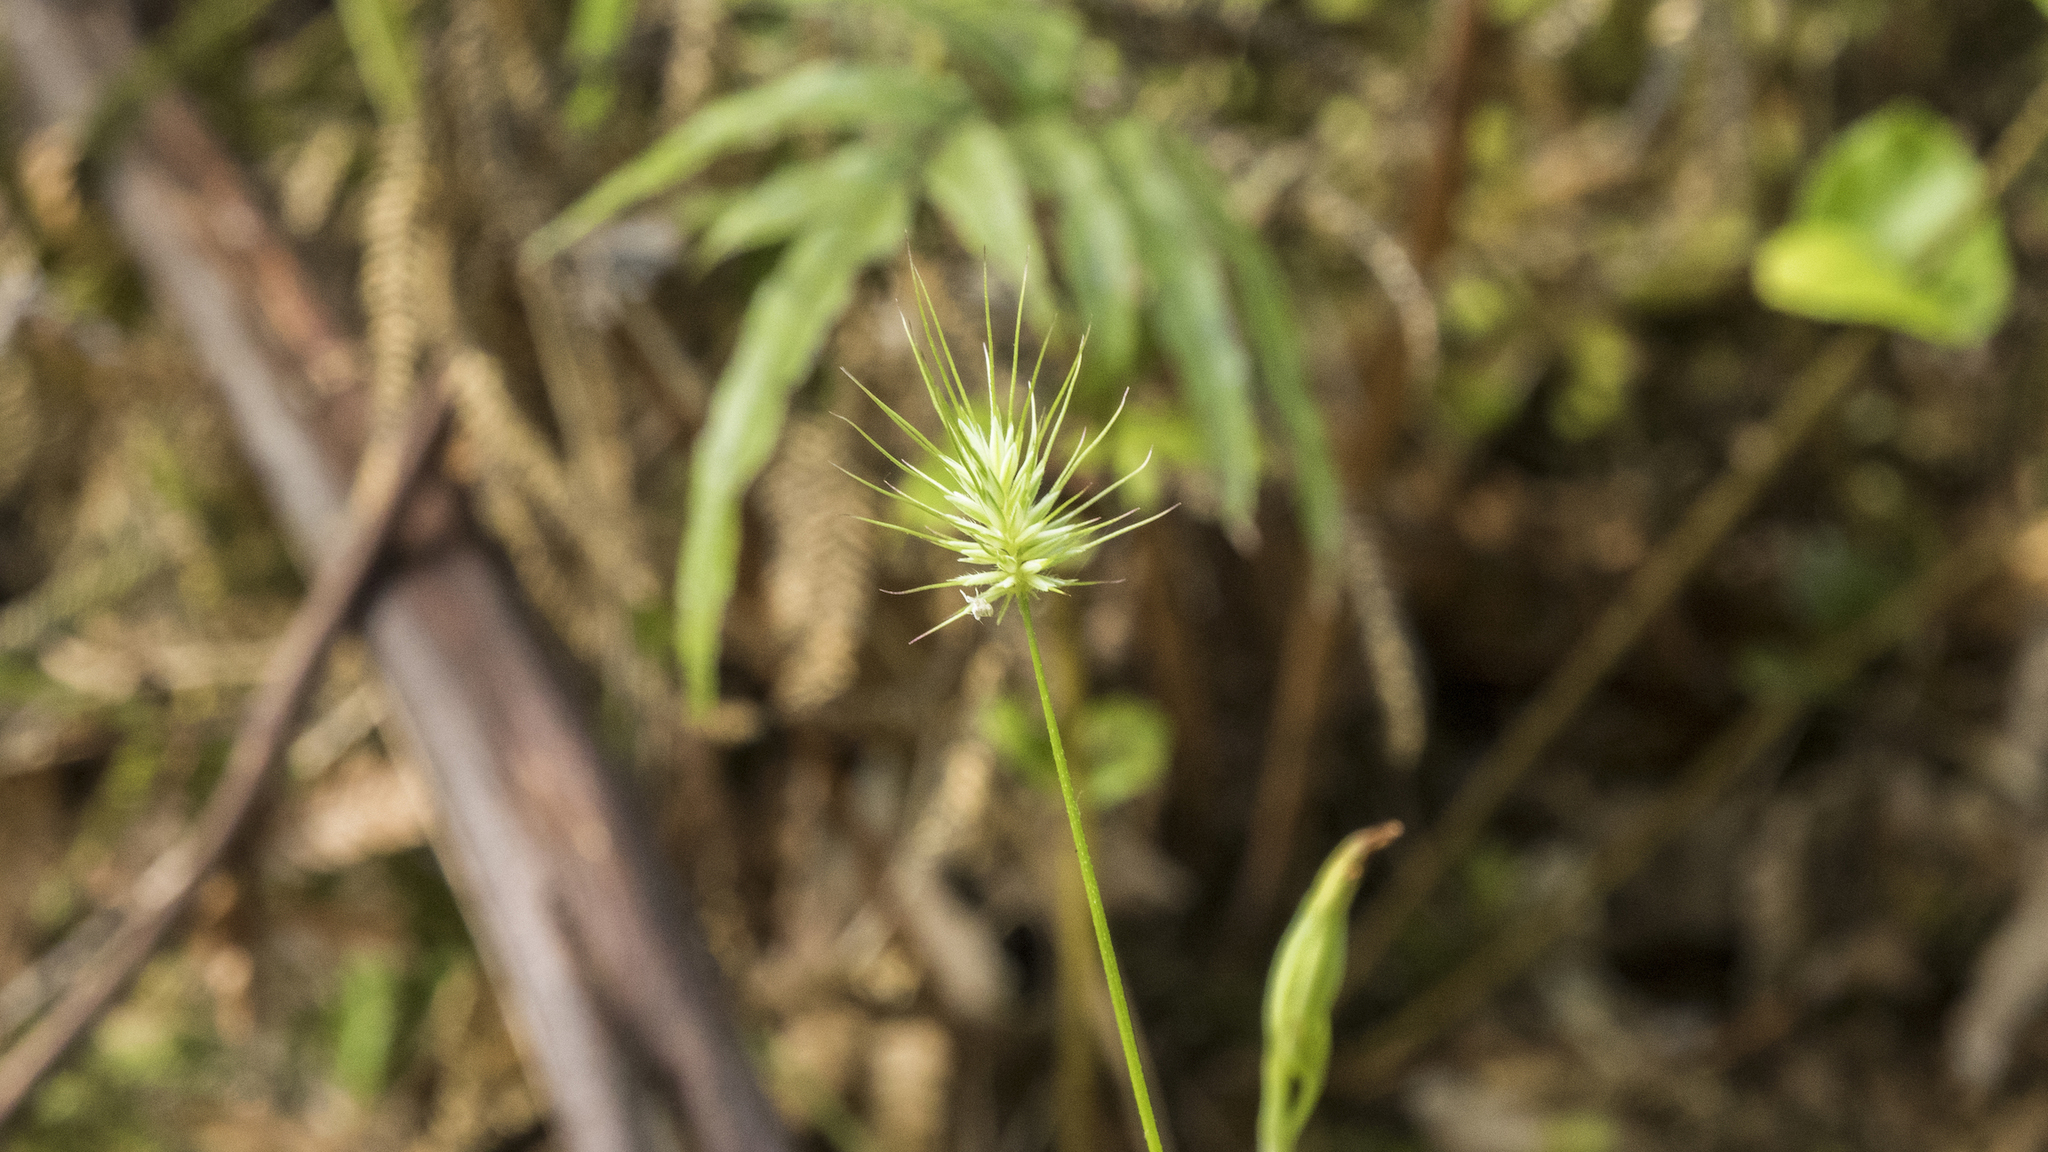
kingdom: Plantae
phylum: Tracheophyta
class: Liliopsida
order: Poales
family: Poaceae
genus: Echinopogon
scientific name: Echinopogon ovatus
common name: Hedgehog-grass
